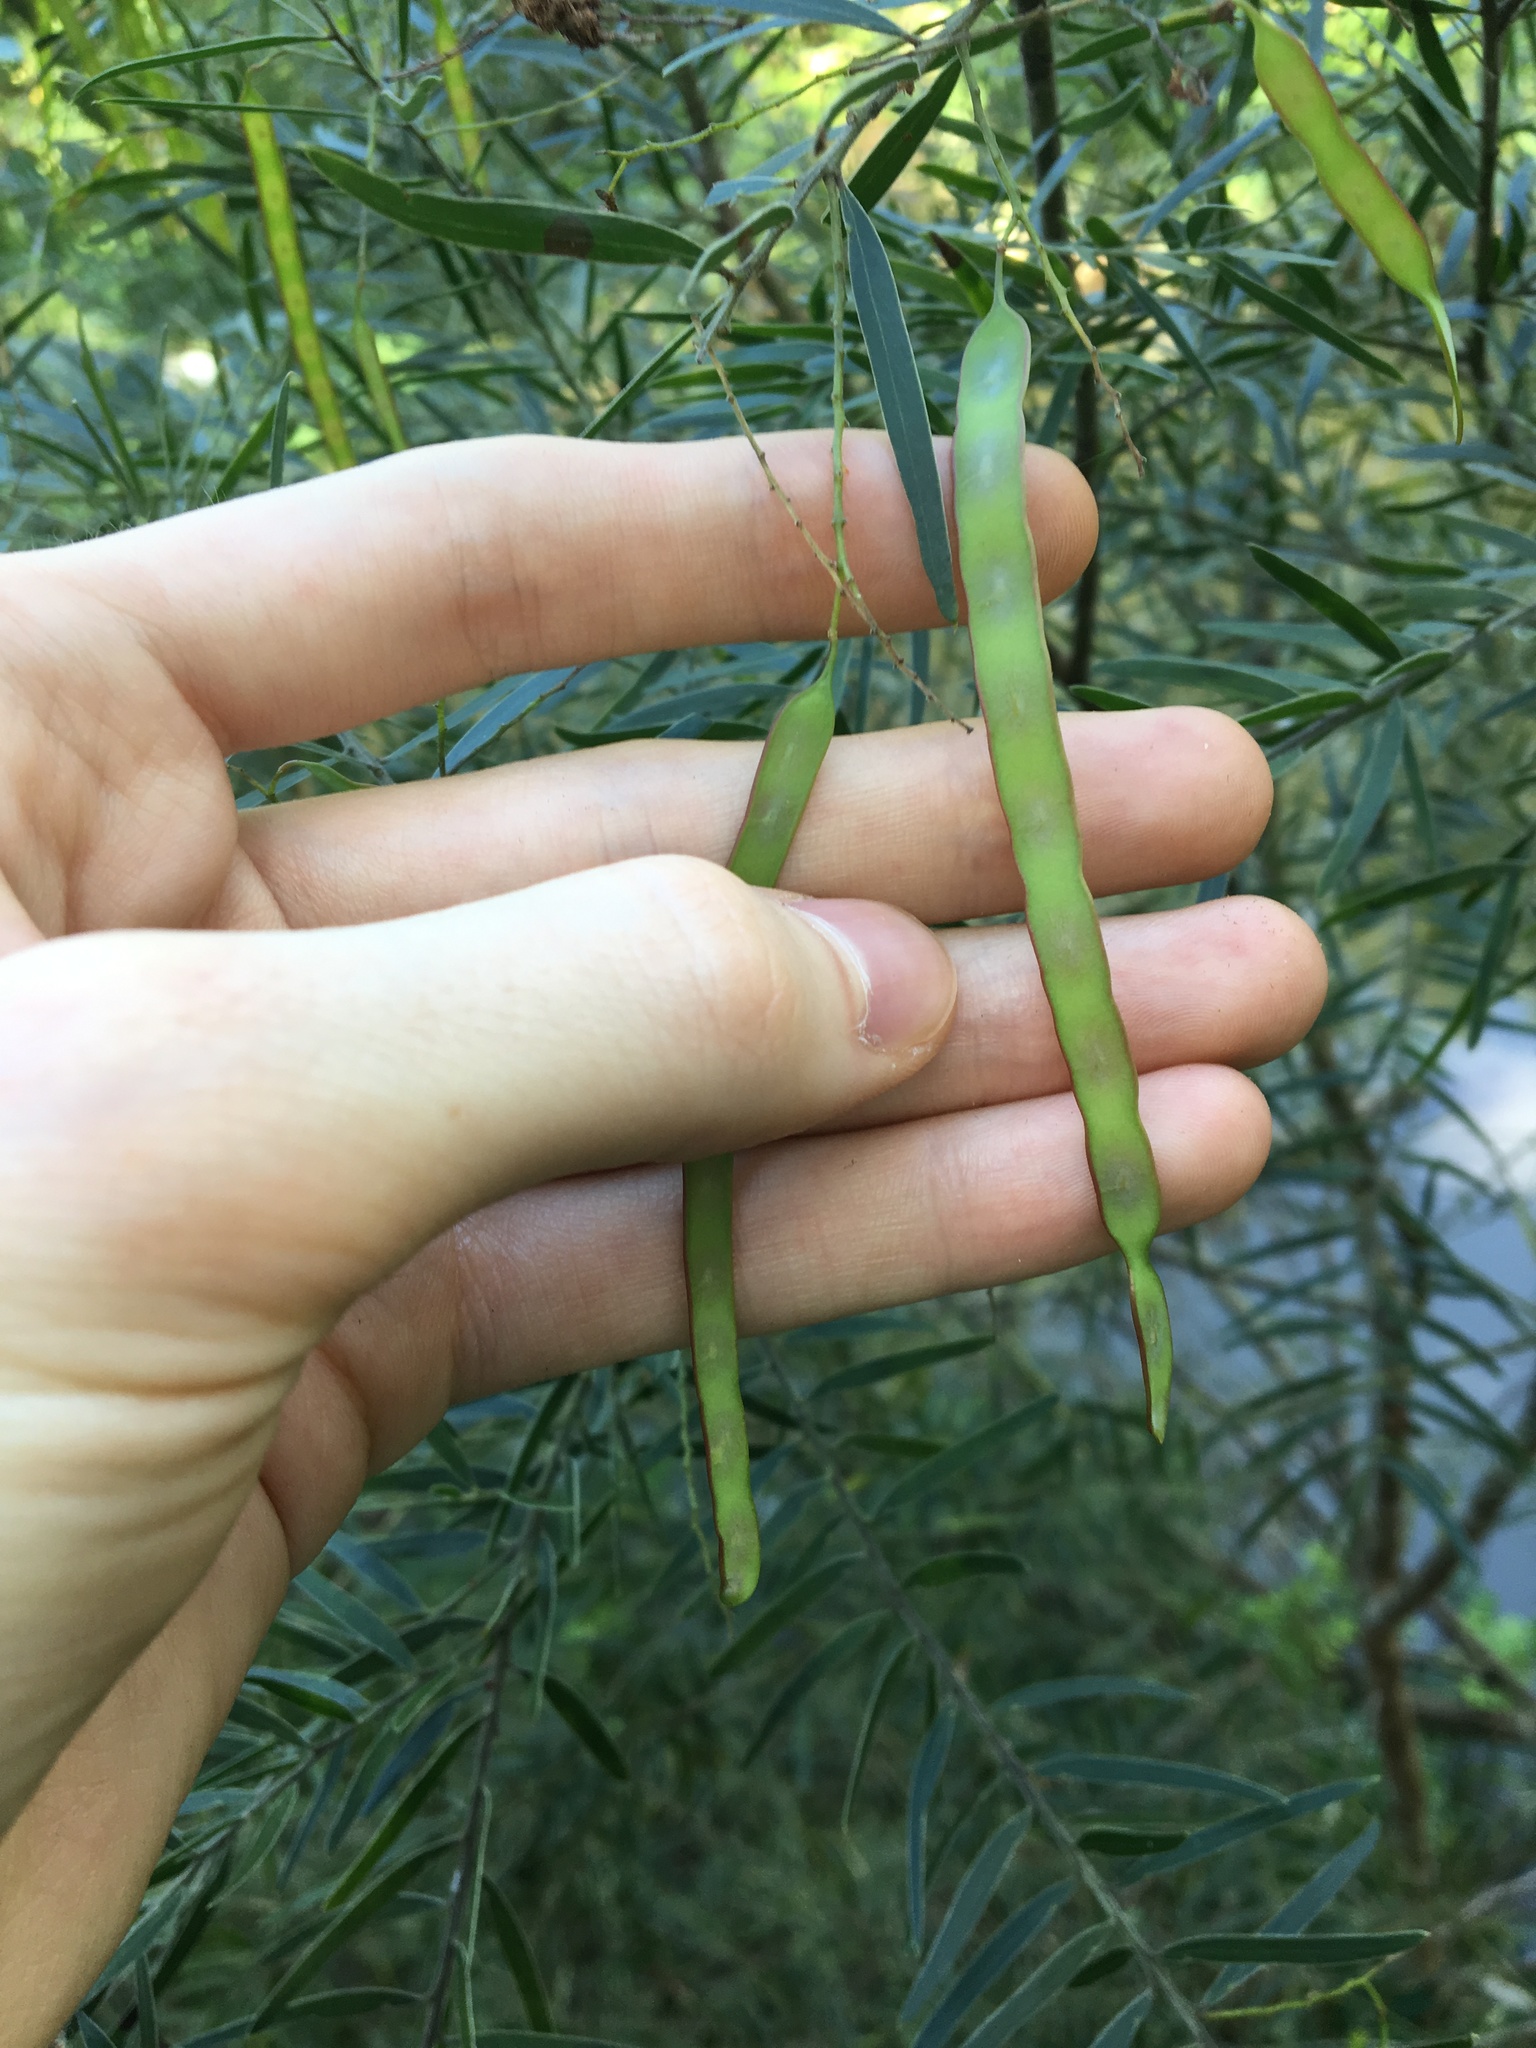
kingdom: Plantae
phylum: Tracheophyta
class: Magnoliopsida
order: Fabales
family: Fabaceae
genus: Acacia
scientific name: Acacia fimbriata
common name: Brisbane golden wattle
